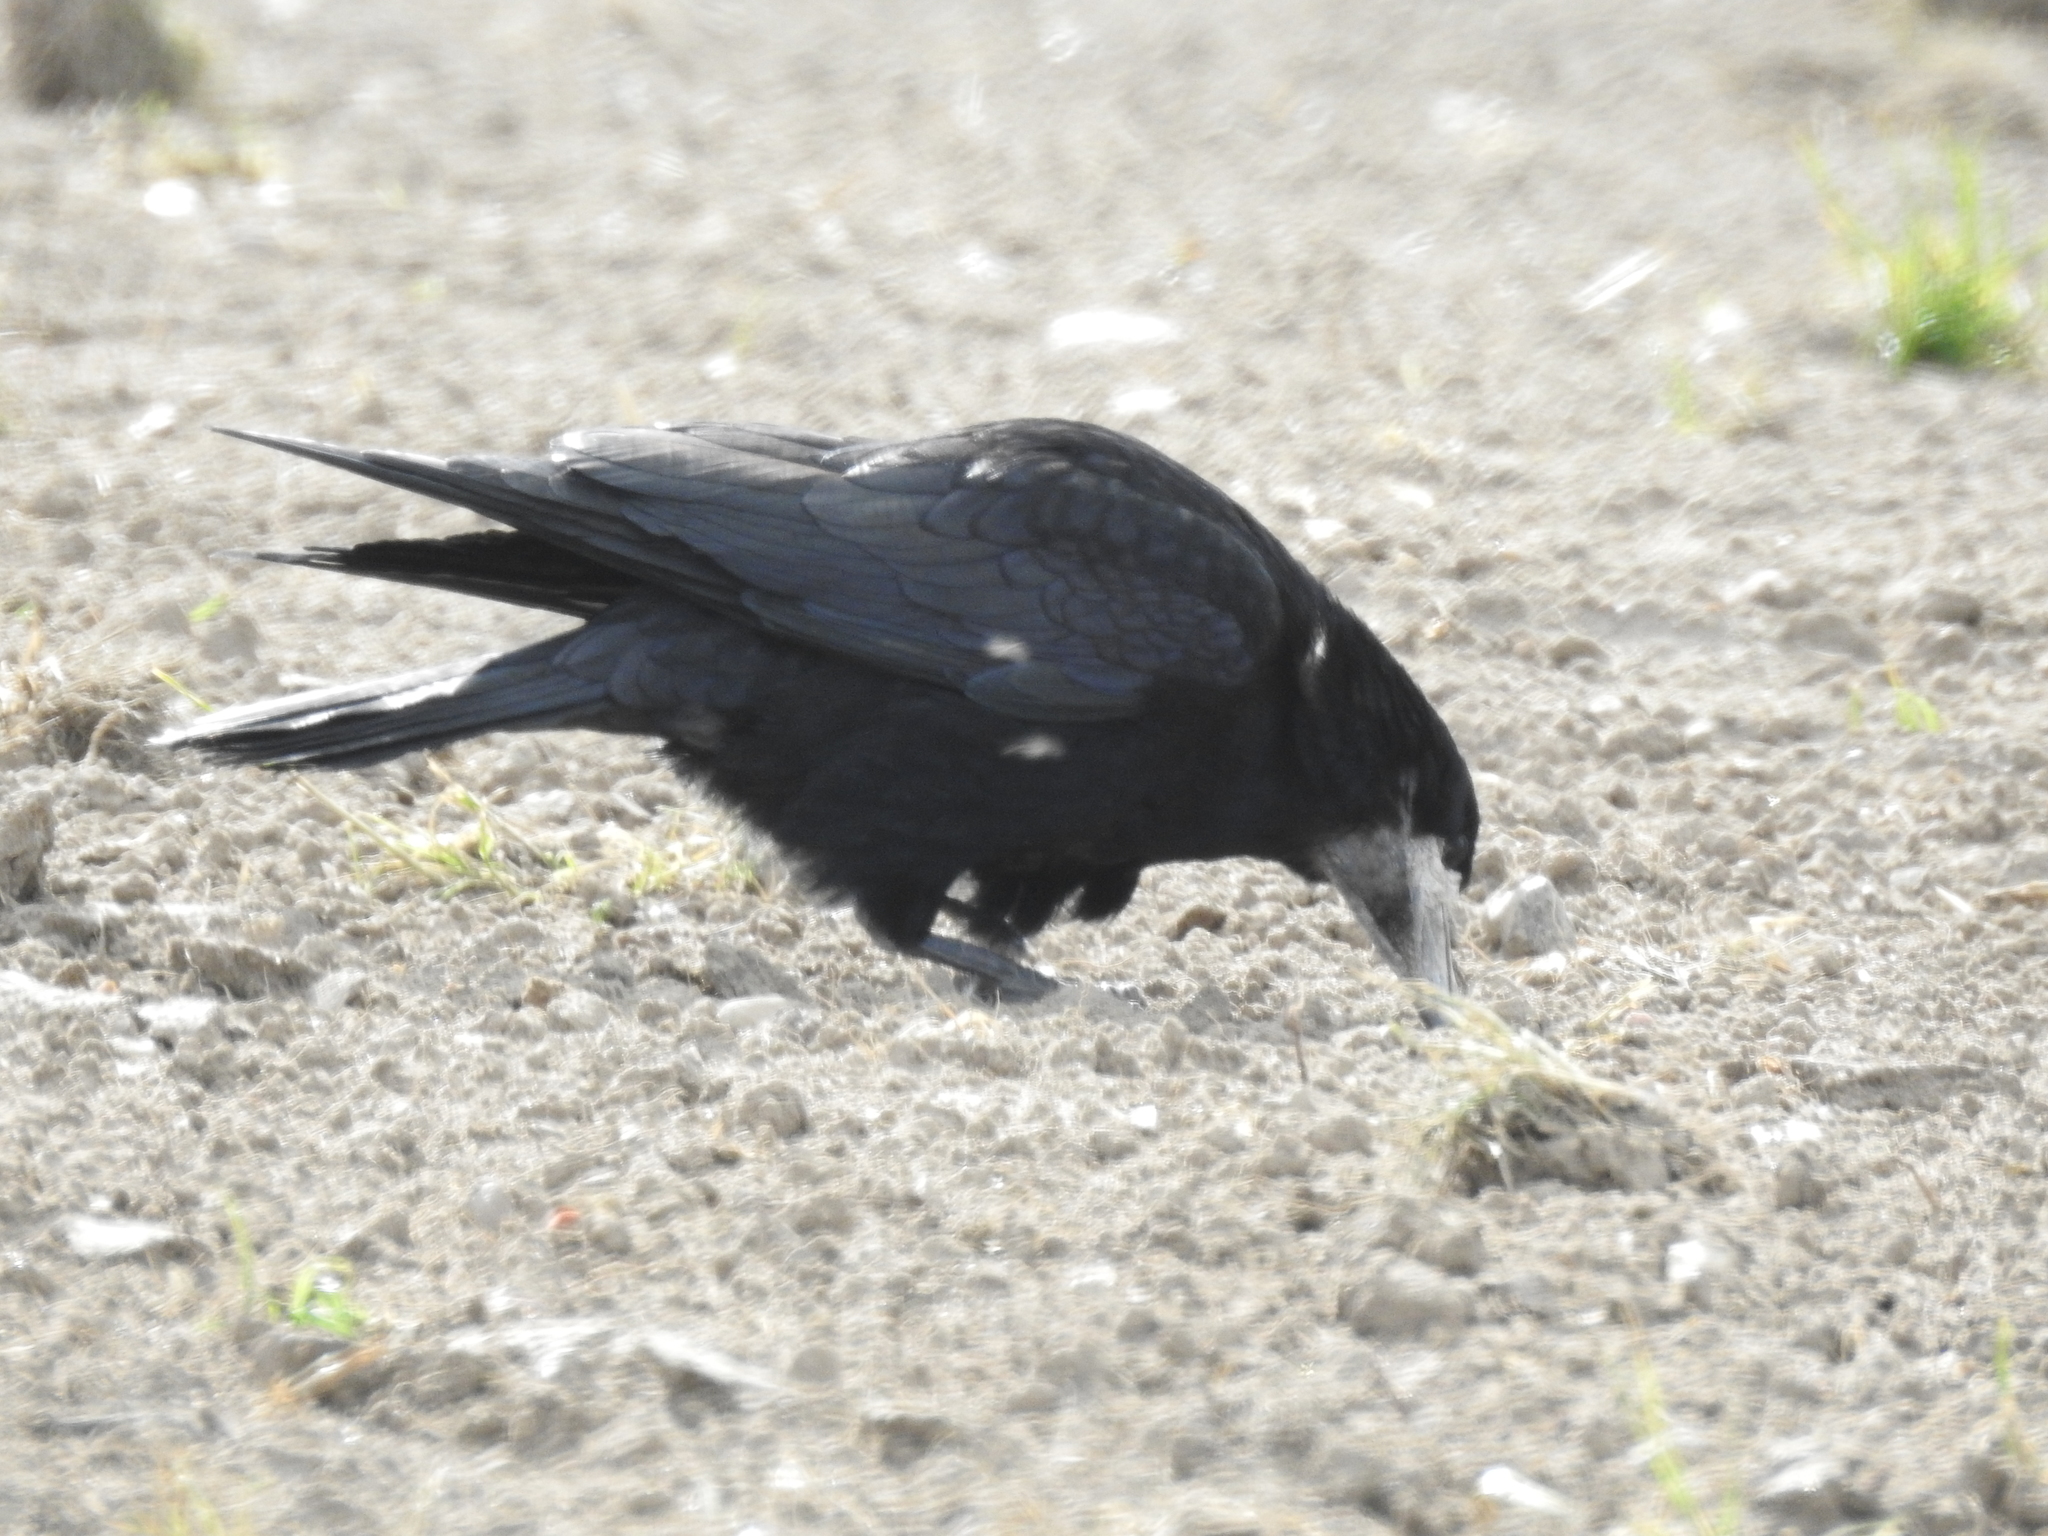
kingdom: Animalia
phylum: Chordata
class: Aves
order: Passeriformes
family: Corvidae
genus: Corvus
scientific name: Corvus frugilegus
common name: Rook
